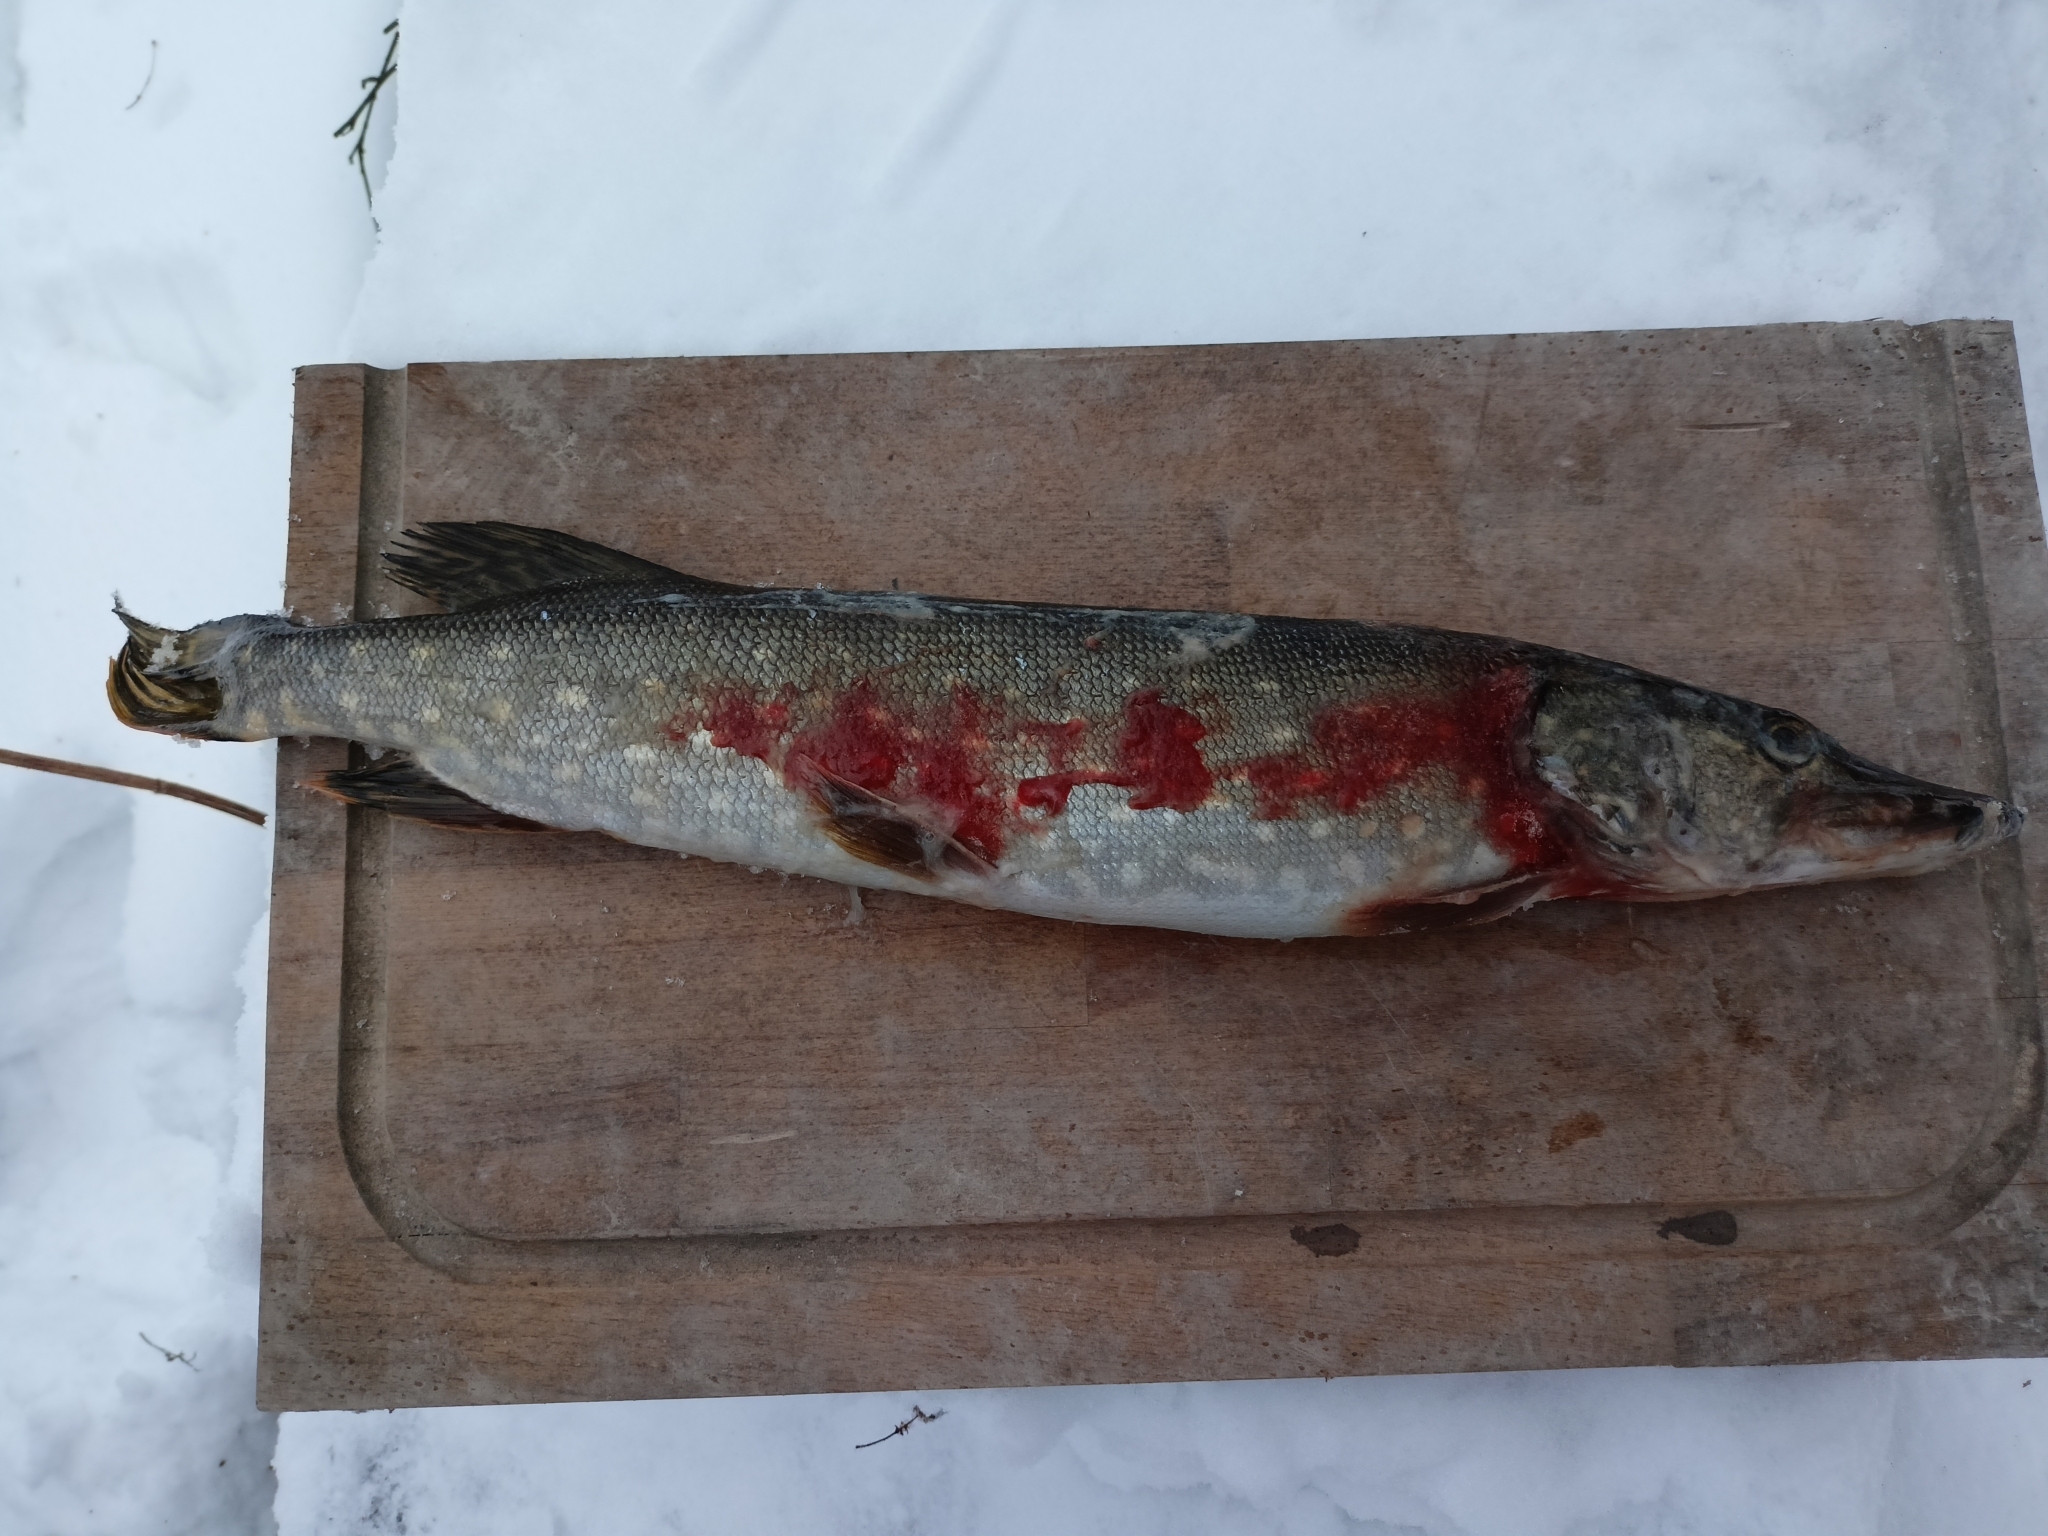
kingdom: Animalia
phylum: Chordata
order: Esociformes
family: Esocidae
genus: Esox
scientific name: Esox lucius
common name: Northern pike
